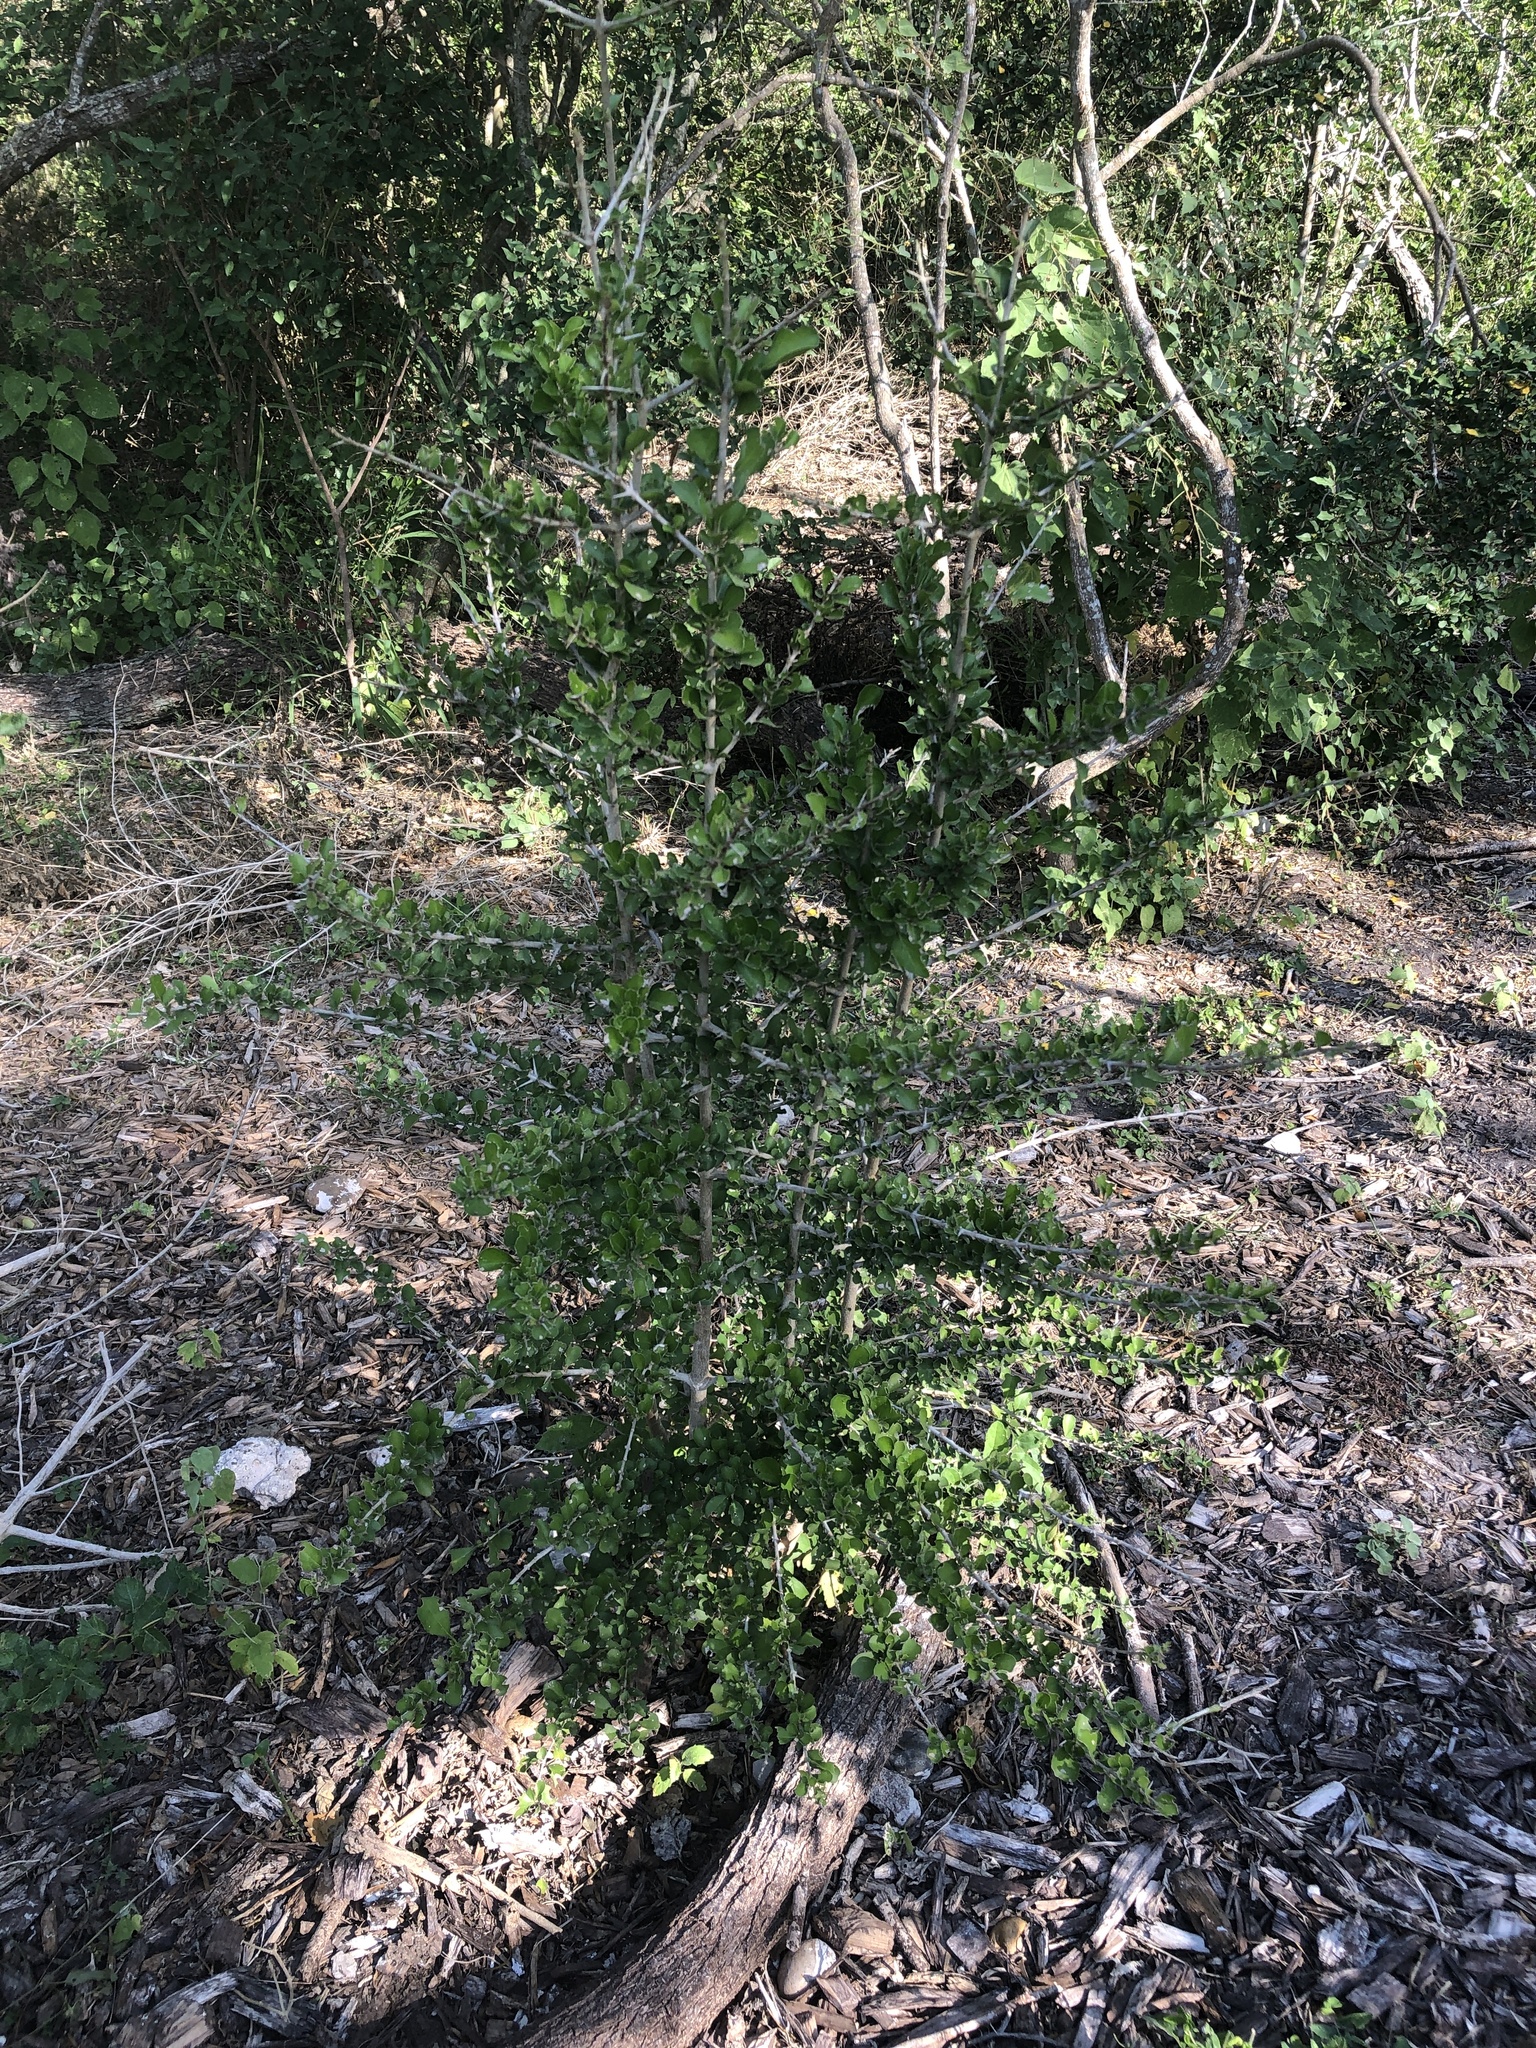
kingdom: Plantae
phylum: Tracheophyta
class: Magnoliopsida
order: Gentianales
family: Rubiaceae
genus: Randia
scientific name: Randia obcordata
